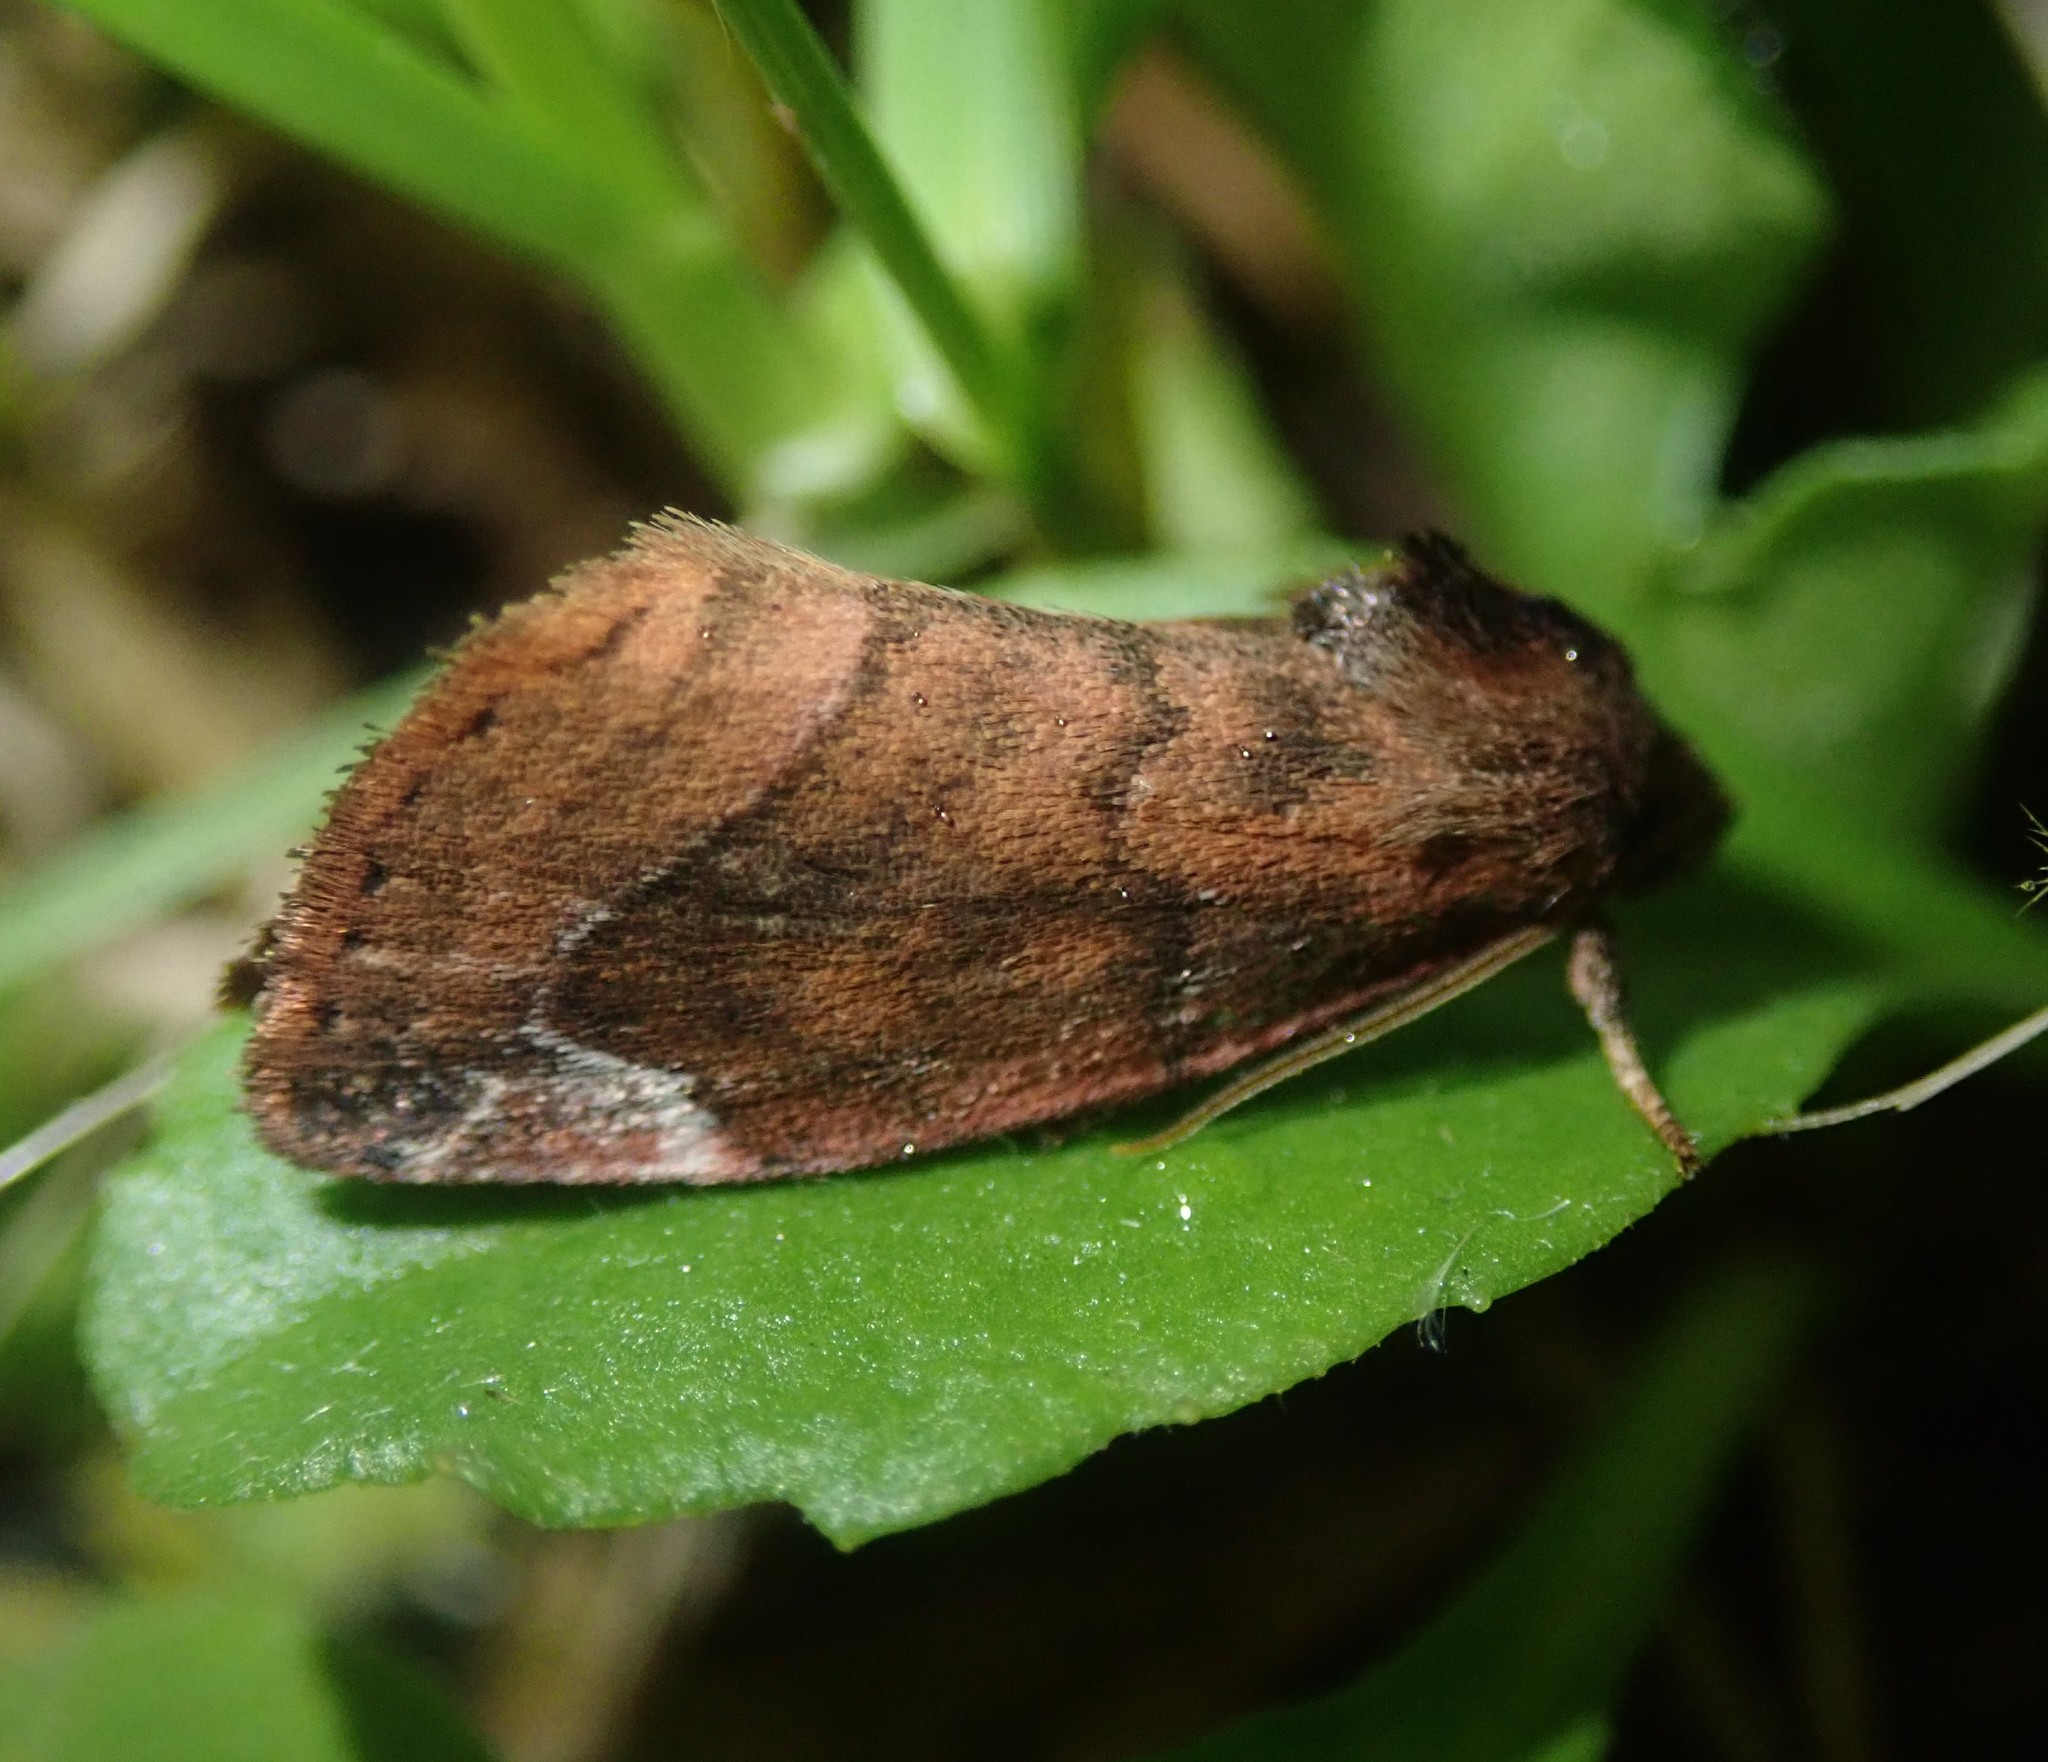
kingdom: Animalia
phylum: Arthropoda
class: Insecta
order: Lepidoptera
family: Noctuidae
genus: Cosmia
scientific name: Cosmia pyralina
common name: Lunar-spotted pinion
